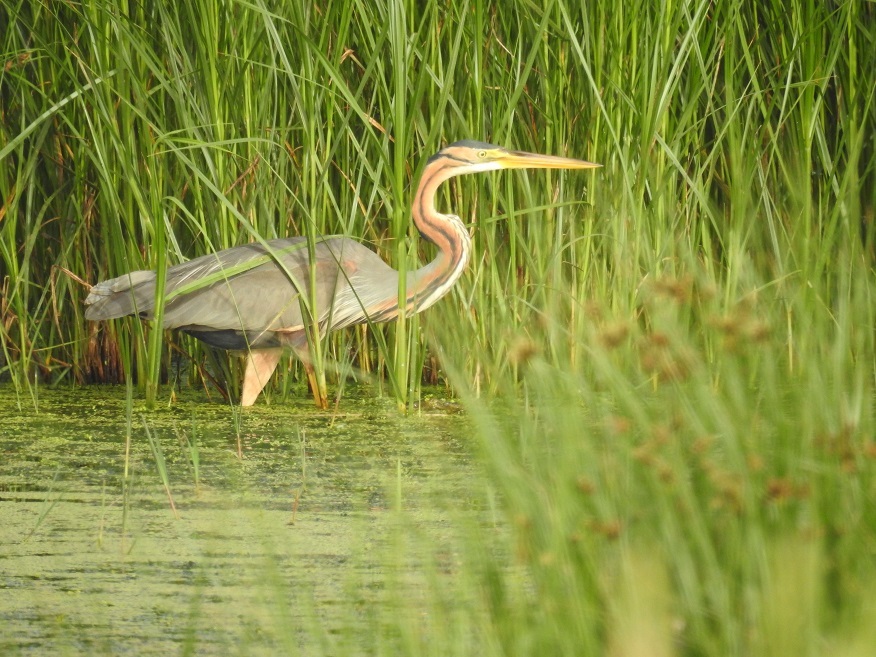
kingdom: Animalia
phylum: Chordata
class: Aves
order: Pelecaniformes
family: Ardeidae
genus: Ardea
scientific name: Ardea purpurea
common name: Purple heron
